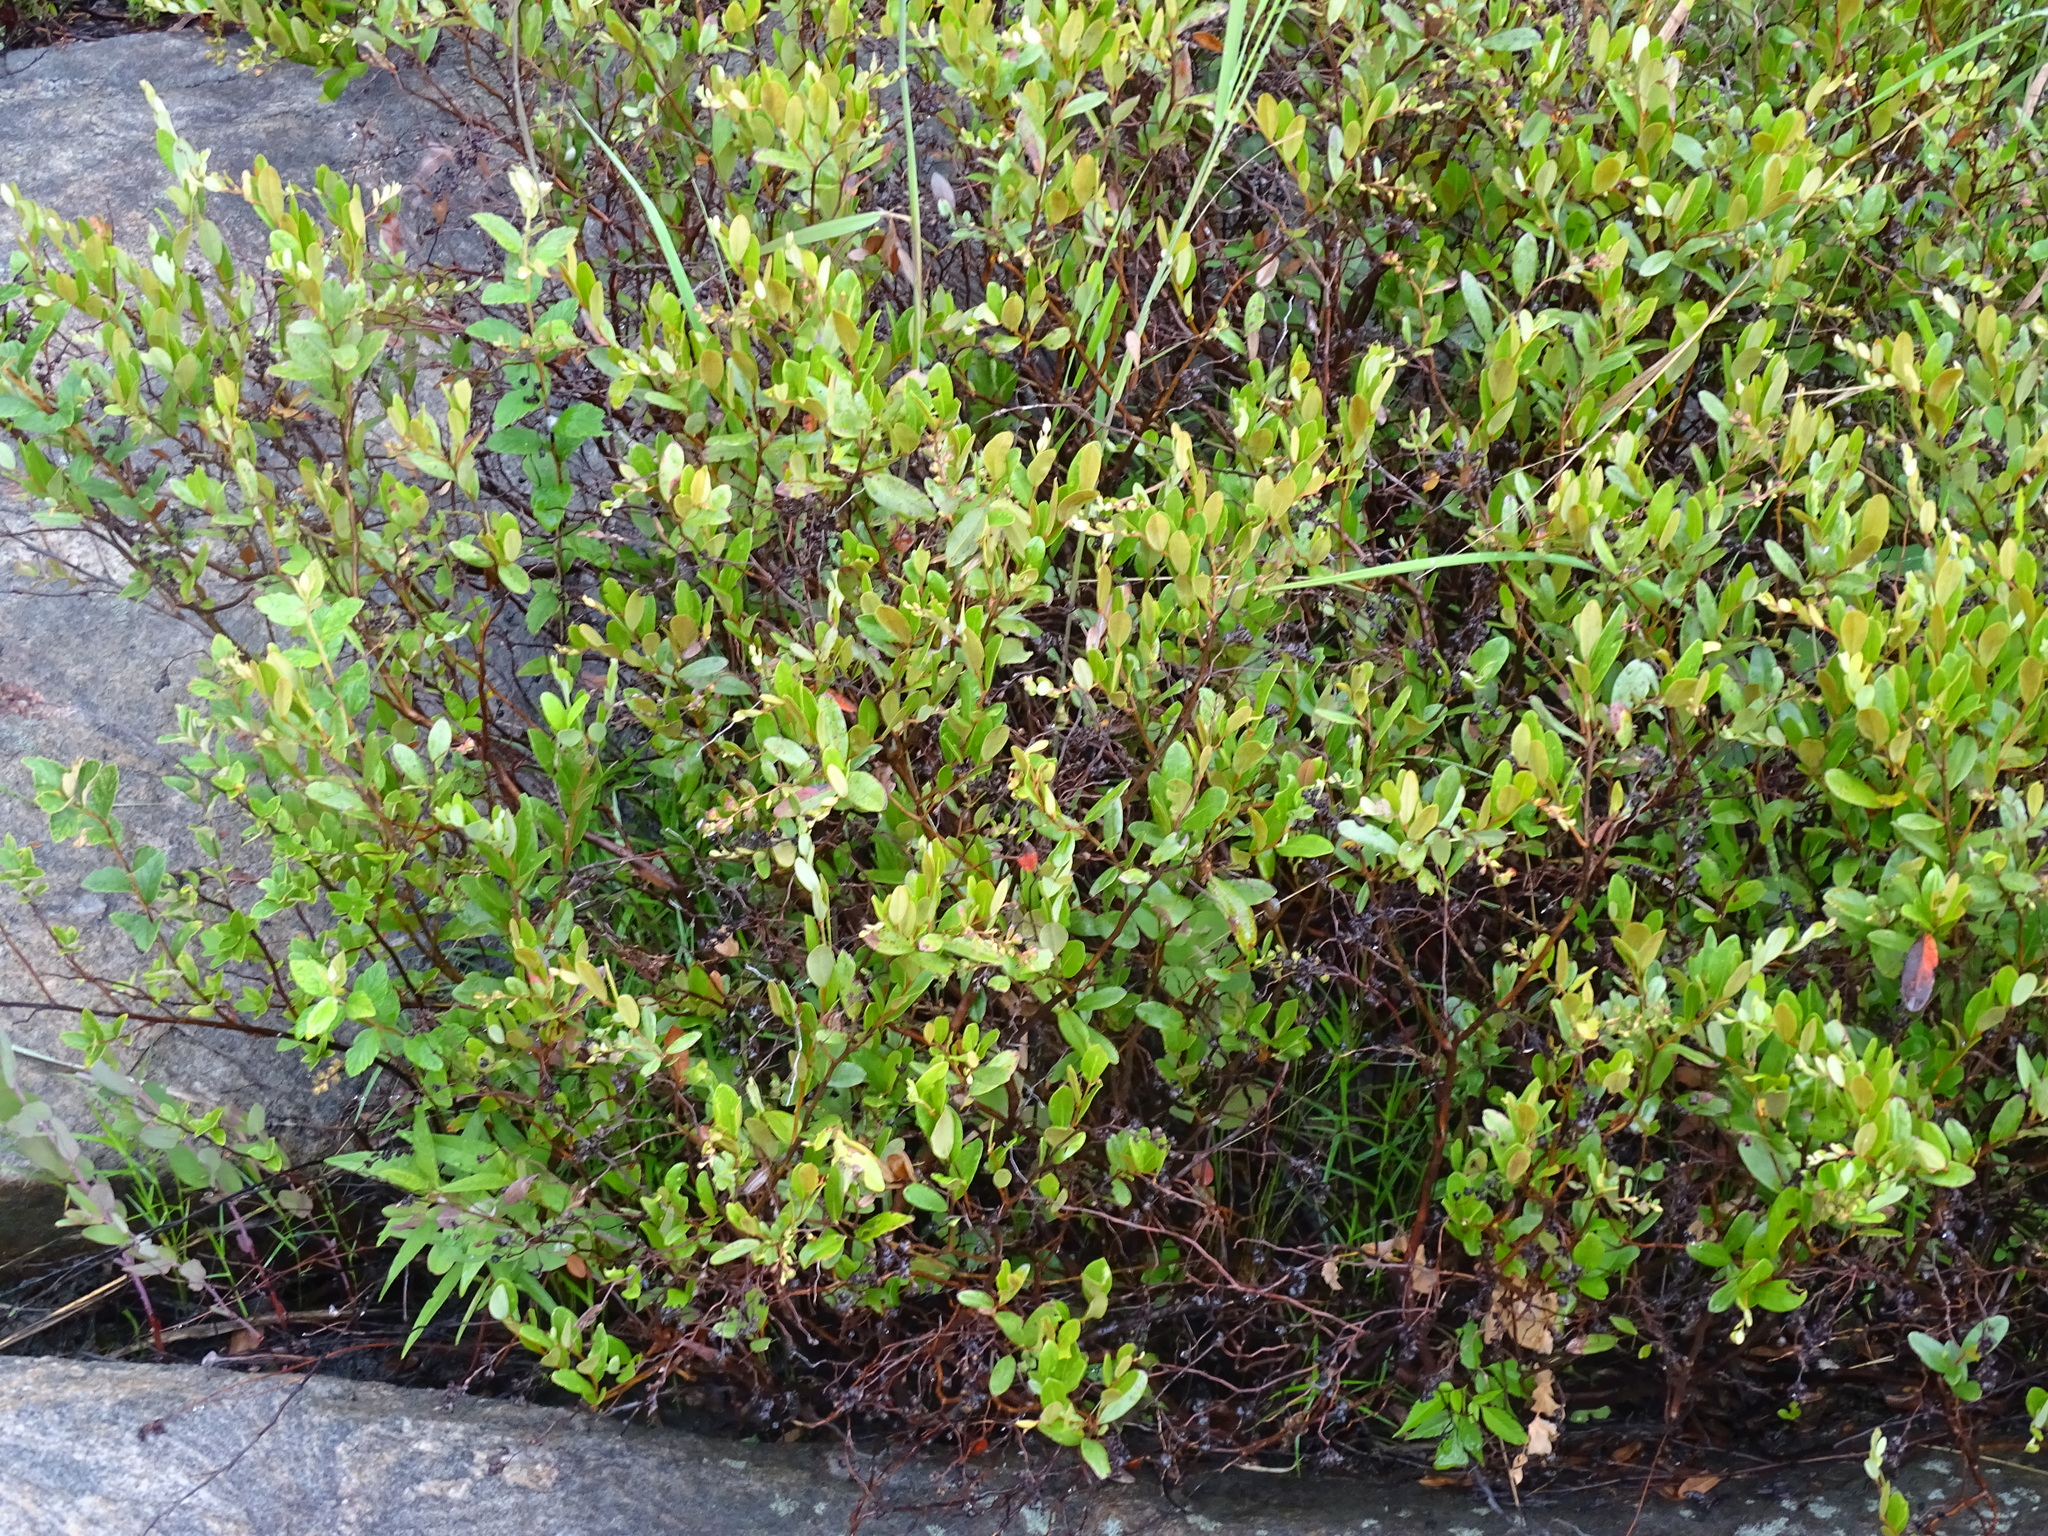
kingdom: Plantae
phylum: Tracheophyta
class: Magnoliopsida
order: Ericales
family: Ericaceae
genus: Chamaedaphne
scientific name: Chamaedaphne calyculata
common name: Leatherleaf
